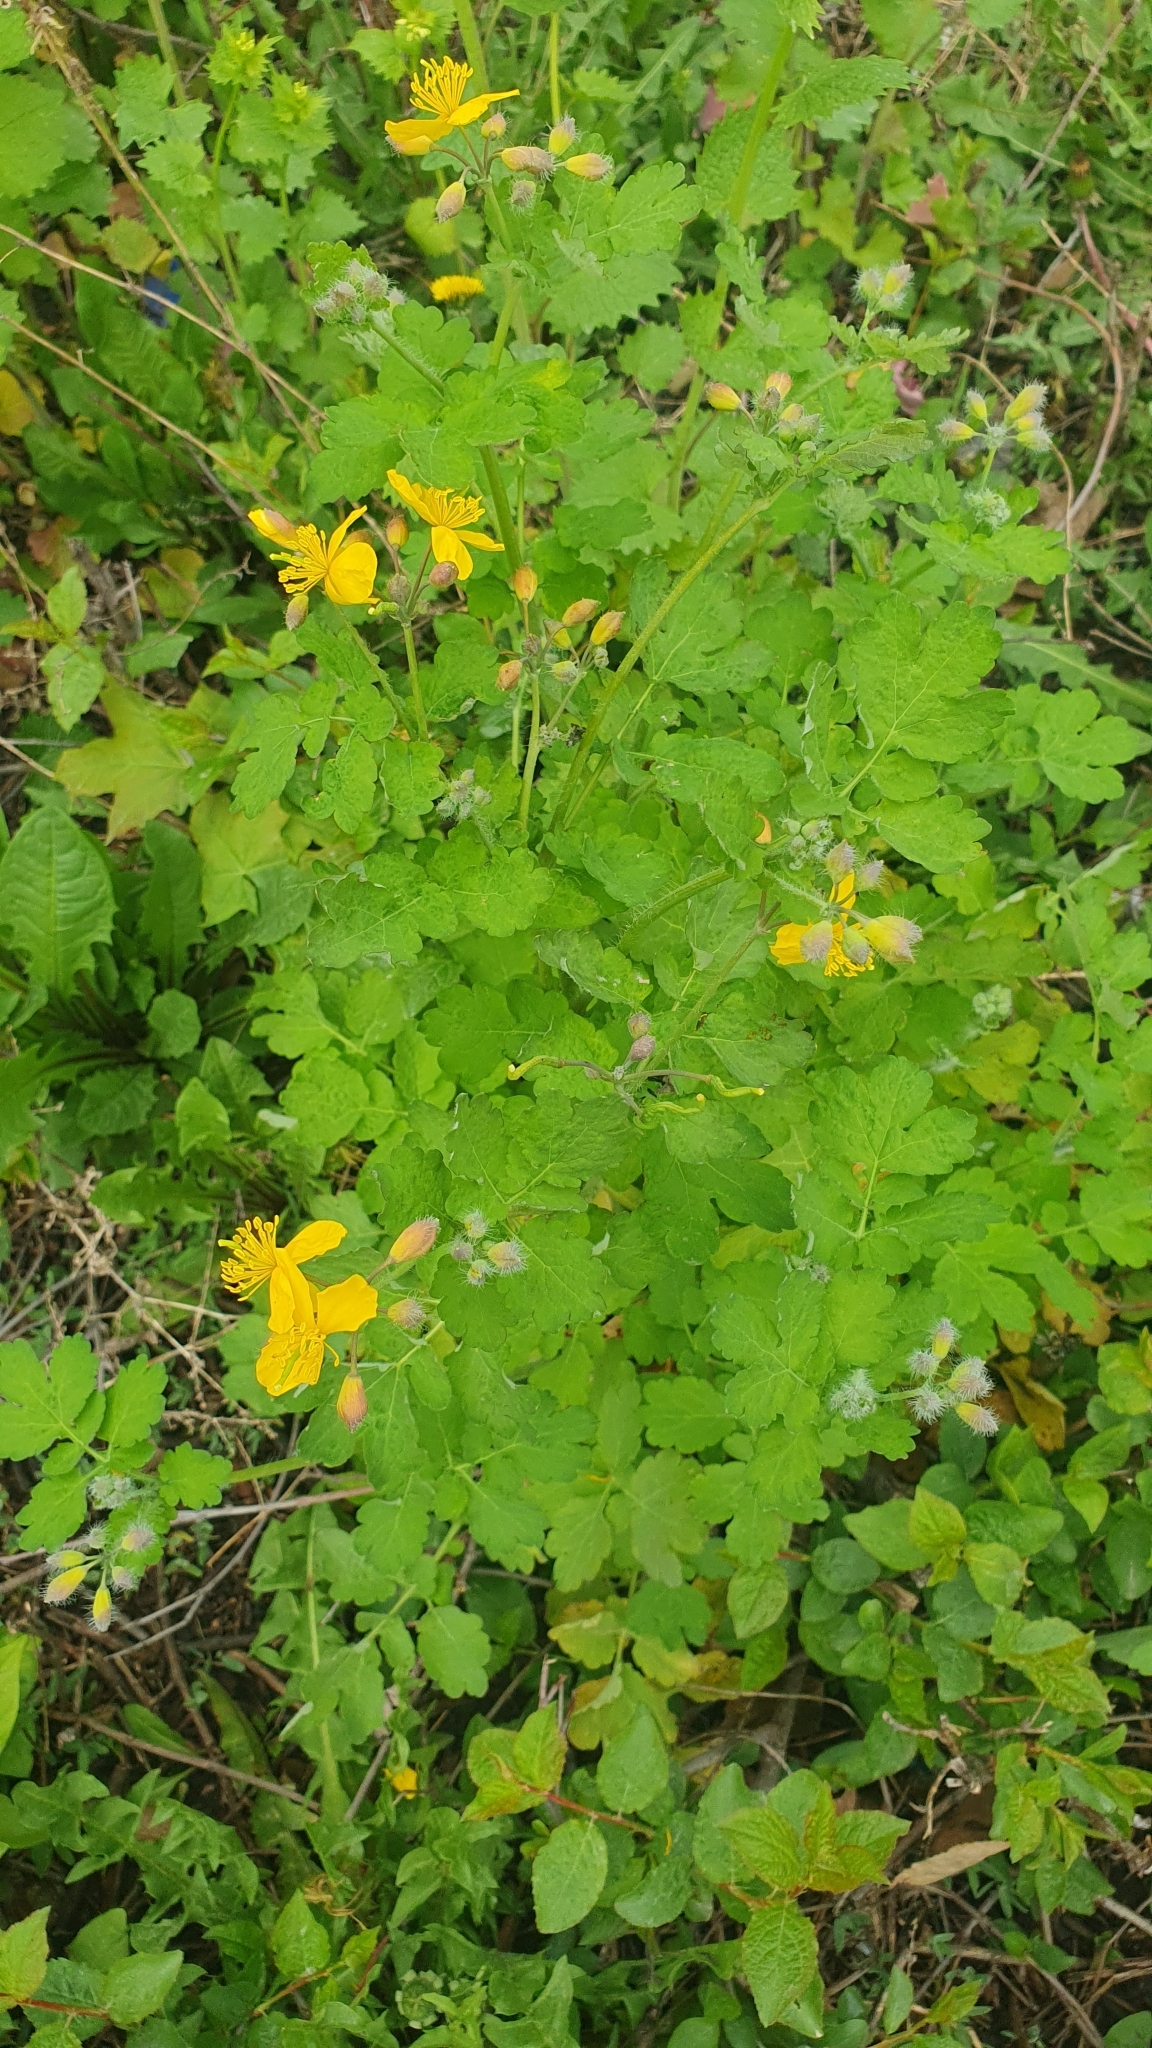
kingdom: Plantae
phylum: Tracheophyta
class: Magnoliopsida
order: Ranunculales
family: Papaveraceae
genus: Chelidonium
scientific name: Chelidonium majus
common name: Greater celandine
